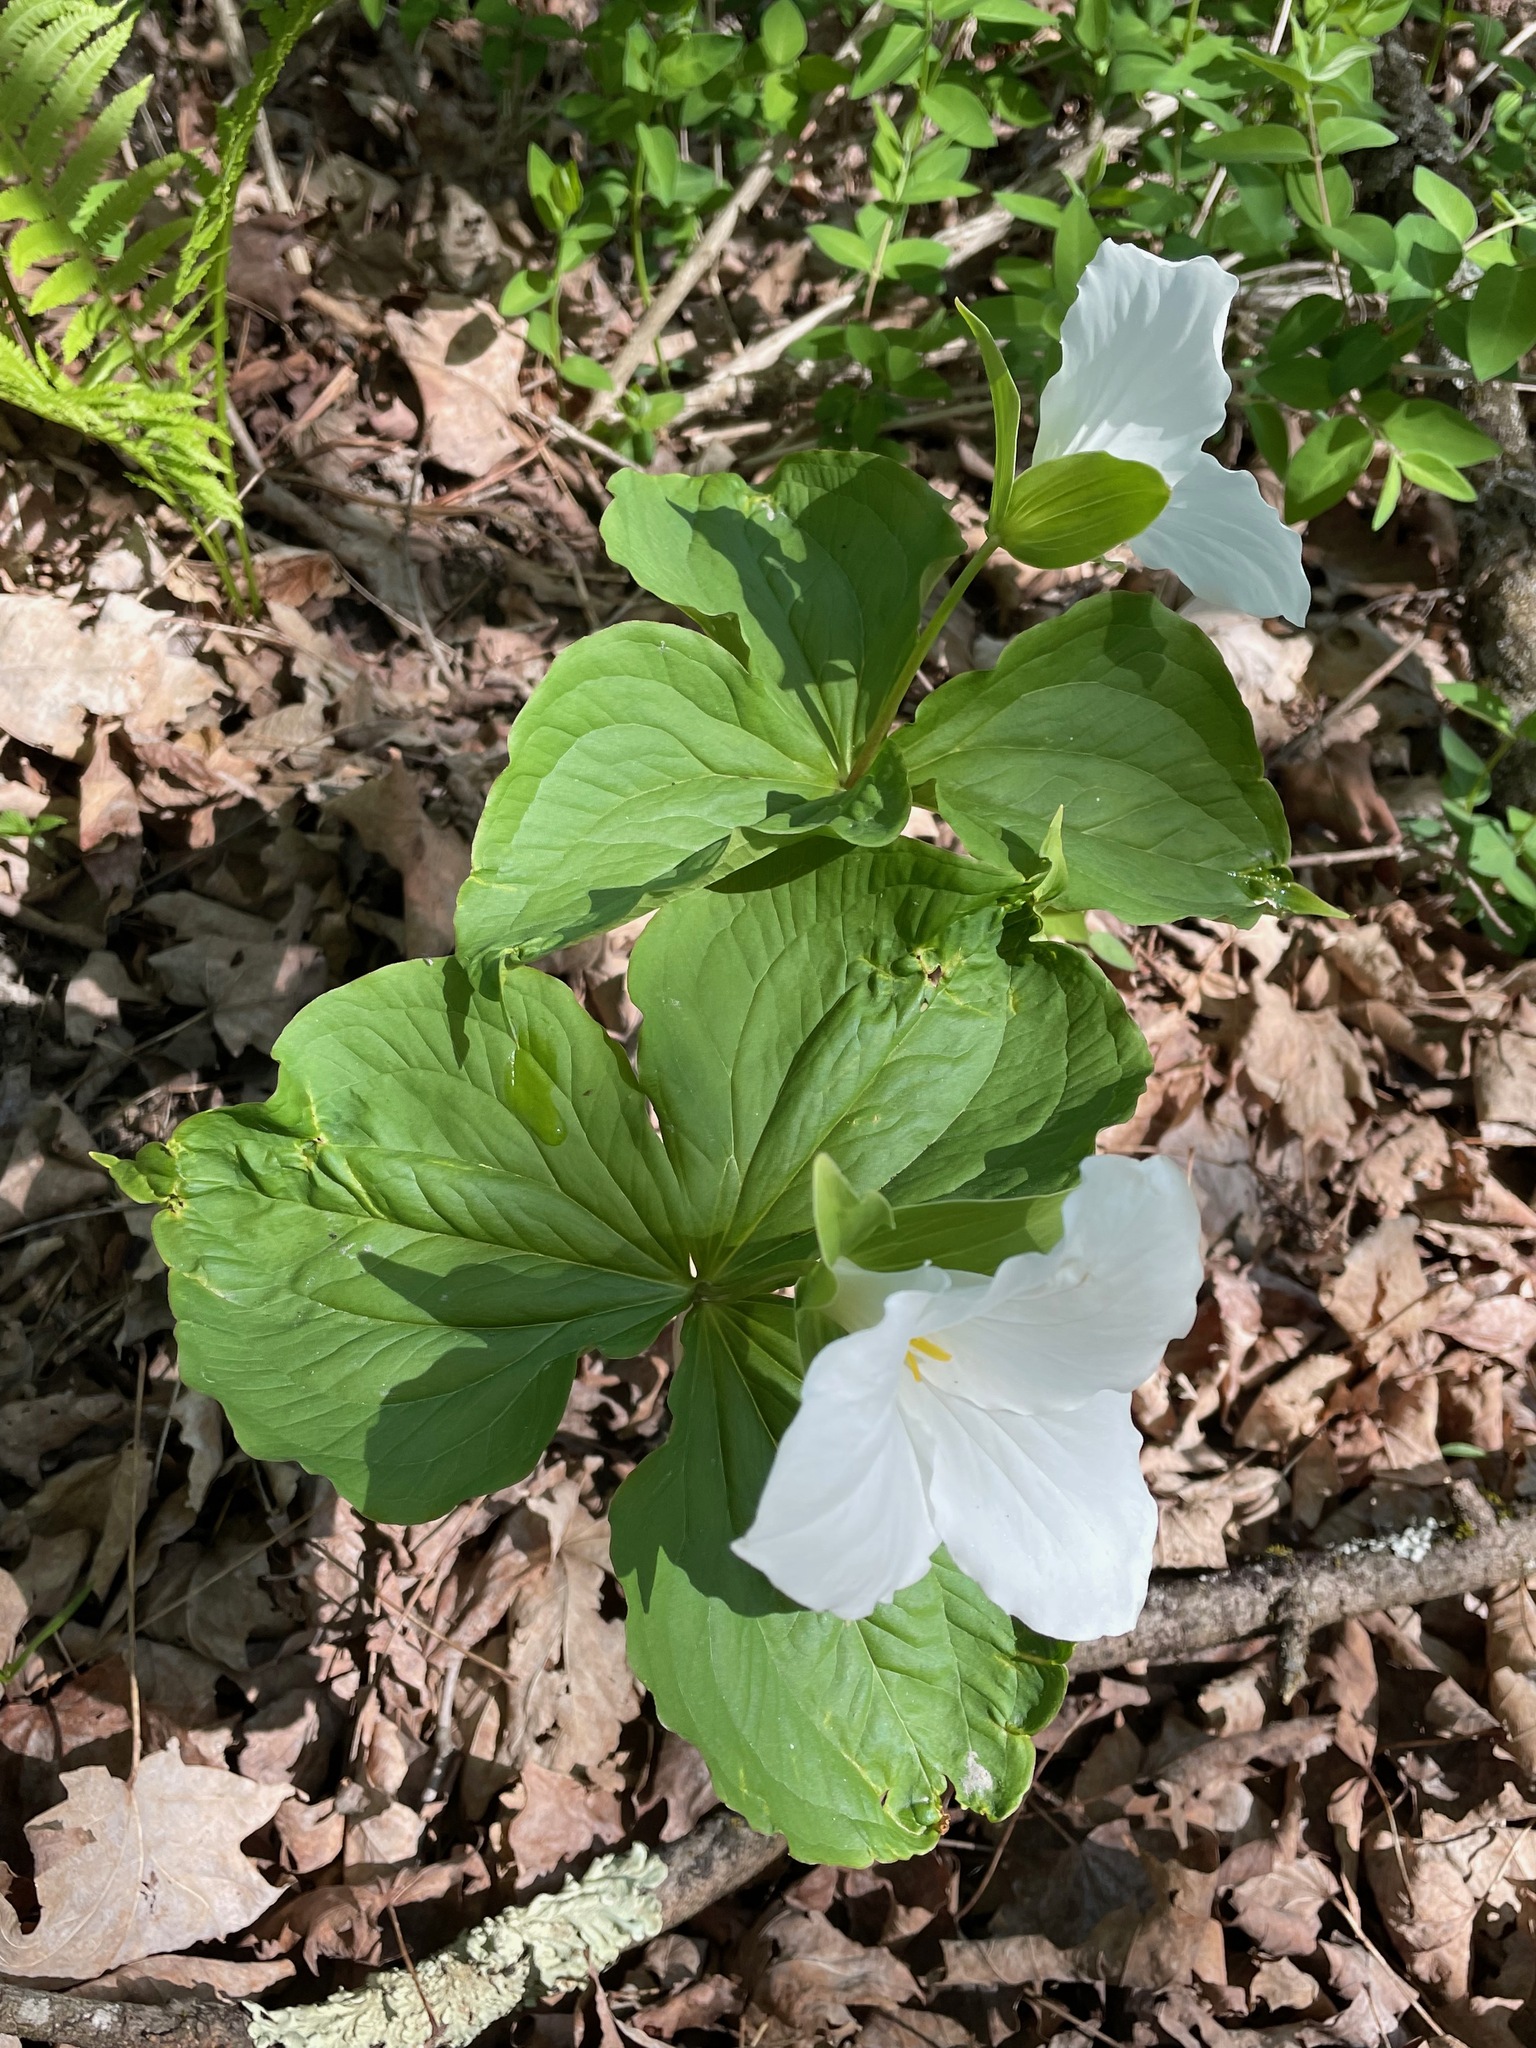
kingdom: Plantae
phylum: Tracheophyta
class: Liliopsida
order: Liliales
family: Melanthiaceae
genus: Trillium
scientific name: Trillium grandiflorum
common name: Great white trillium
